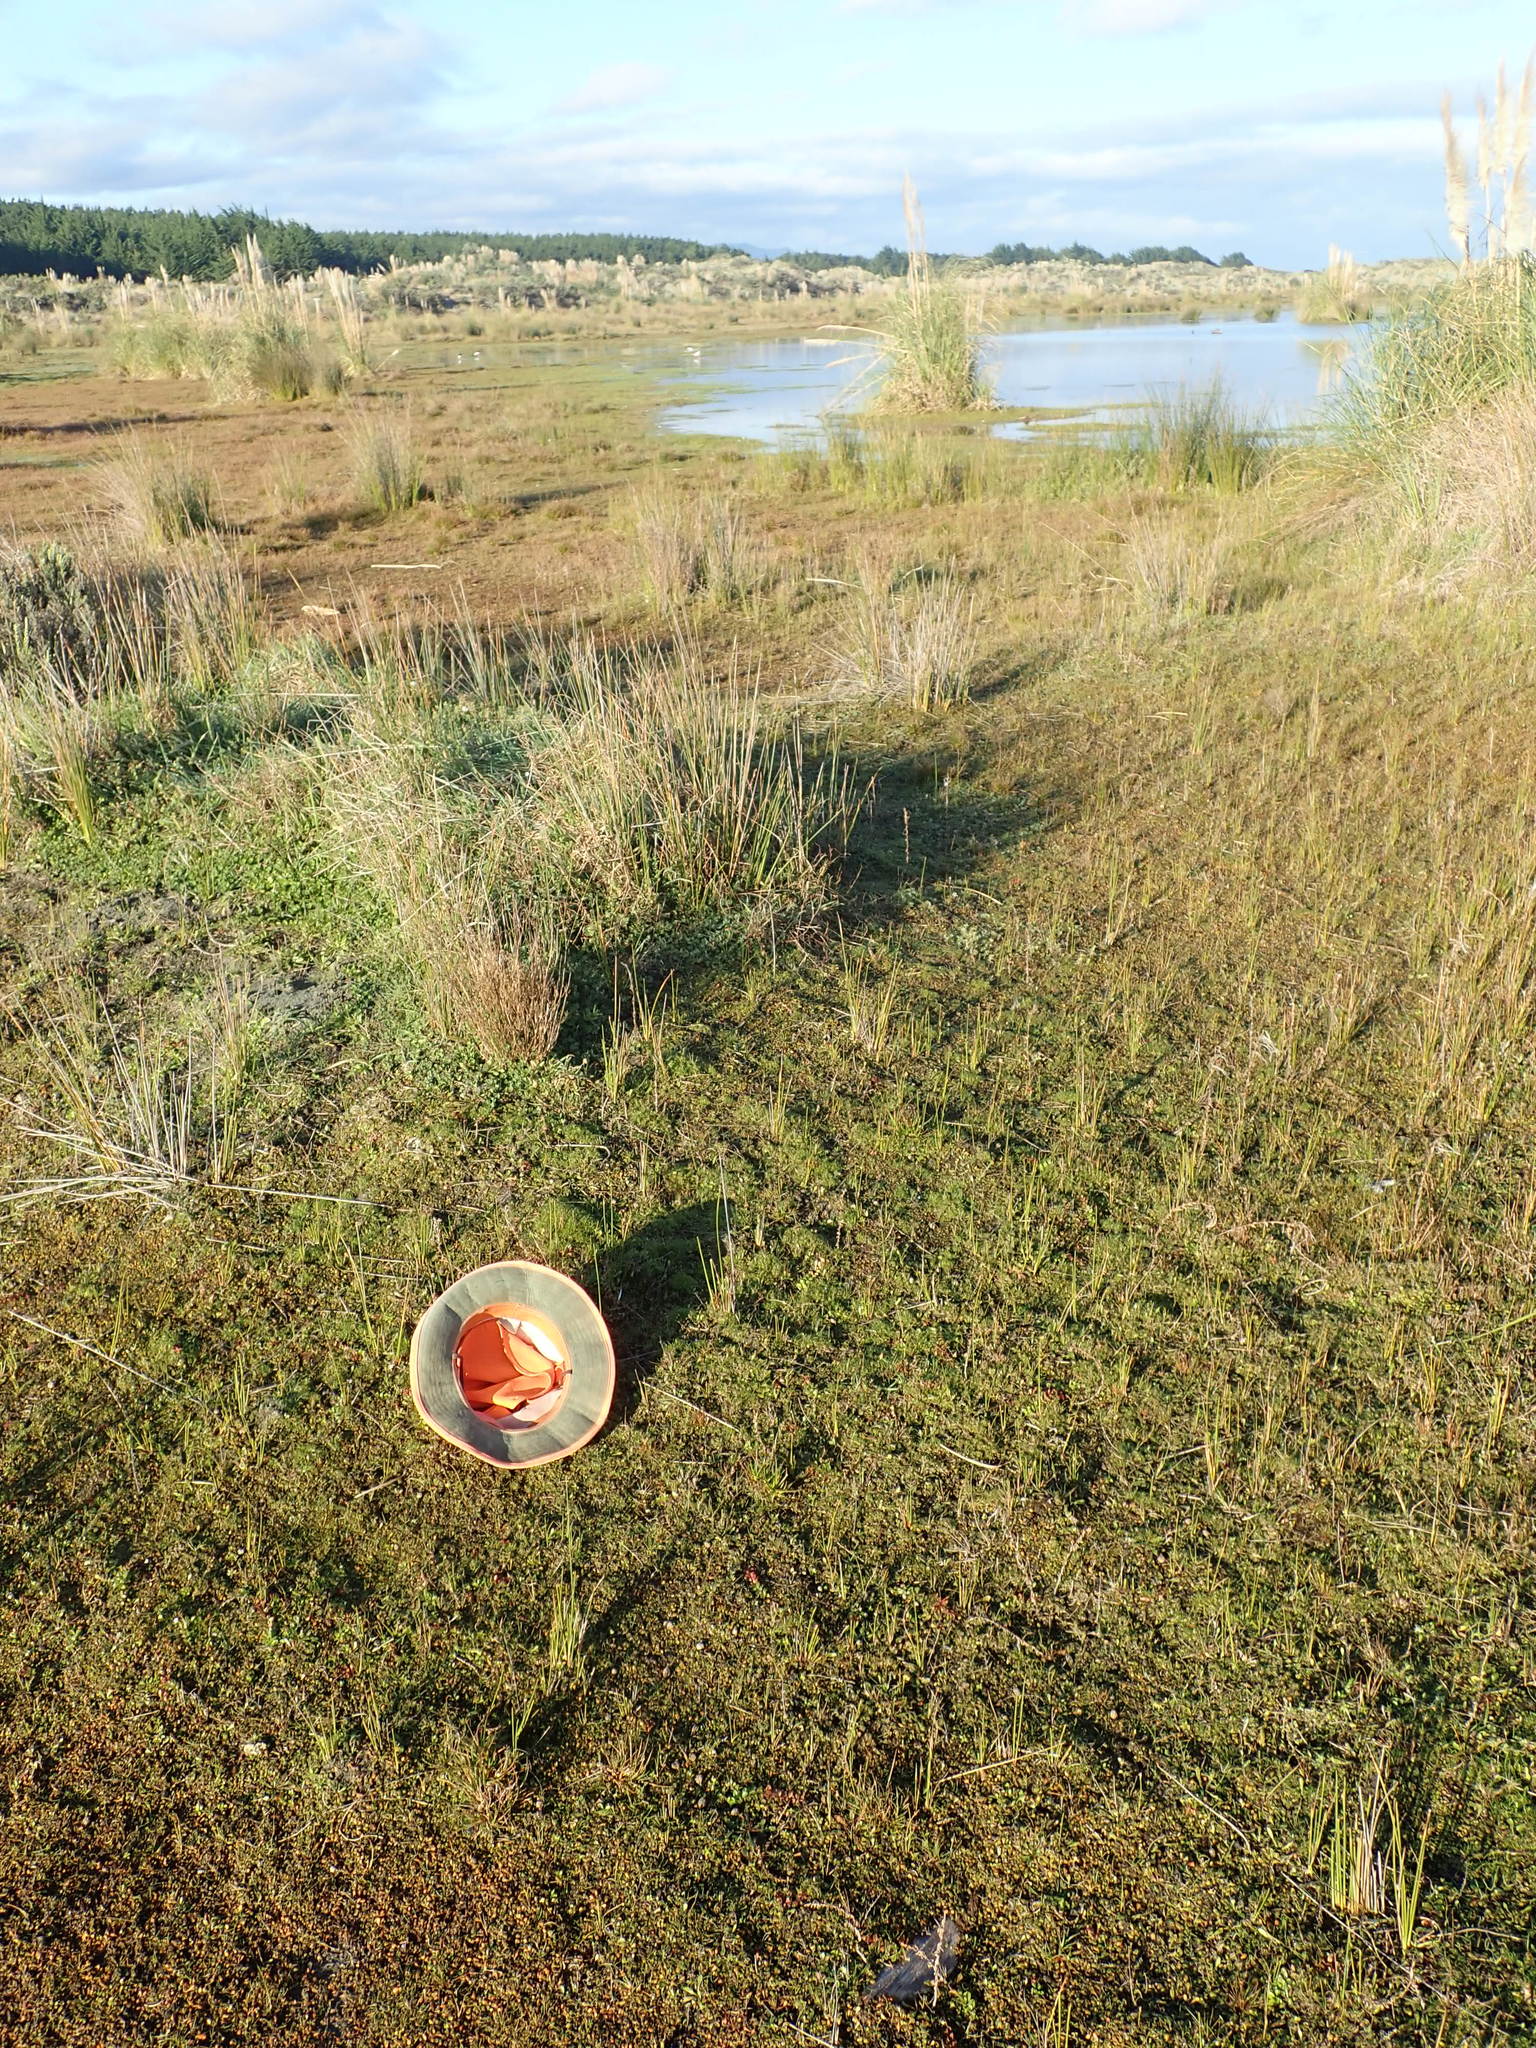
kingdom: Plantae
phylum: Tracheophyta
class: Magnoliopsida
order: Caryophyllales
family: Caryophyllaceae
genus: Sagina
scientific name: Sagina procumbens
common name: Procumbent pearlwort
